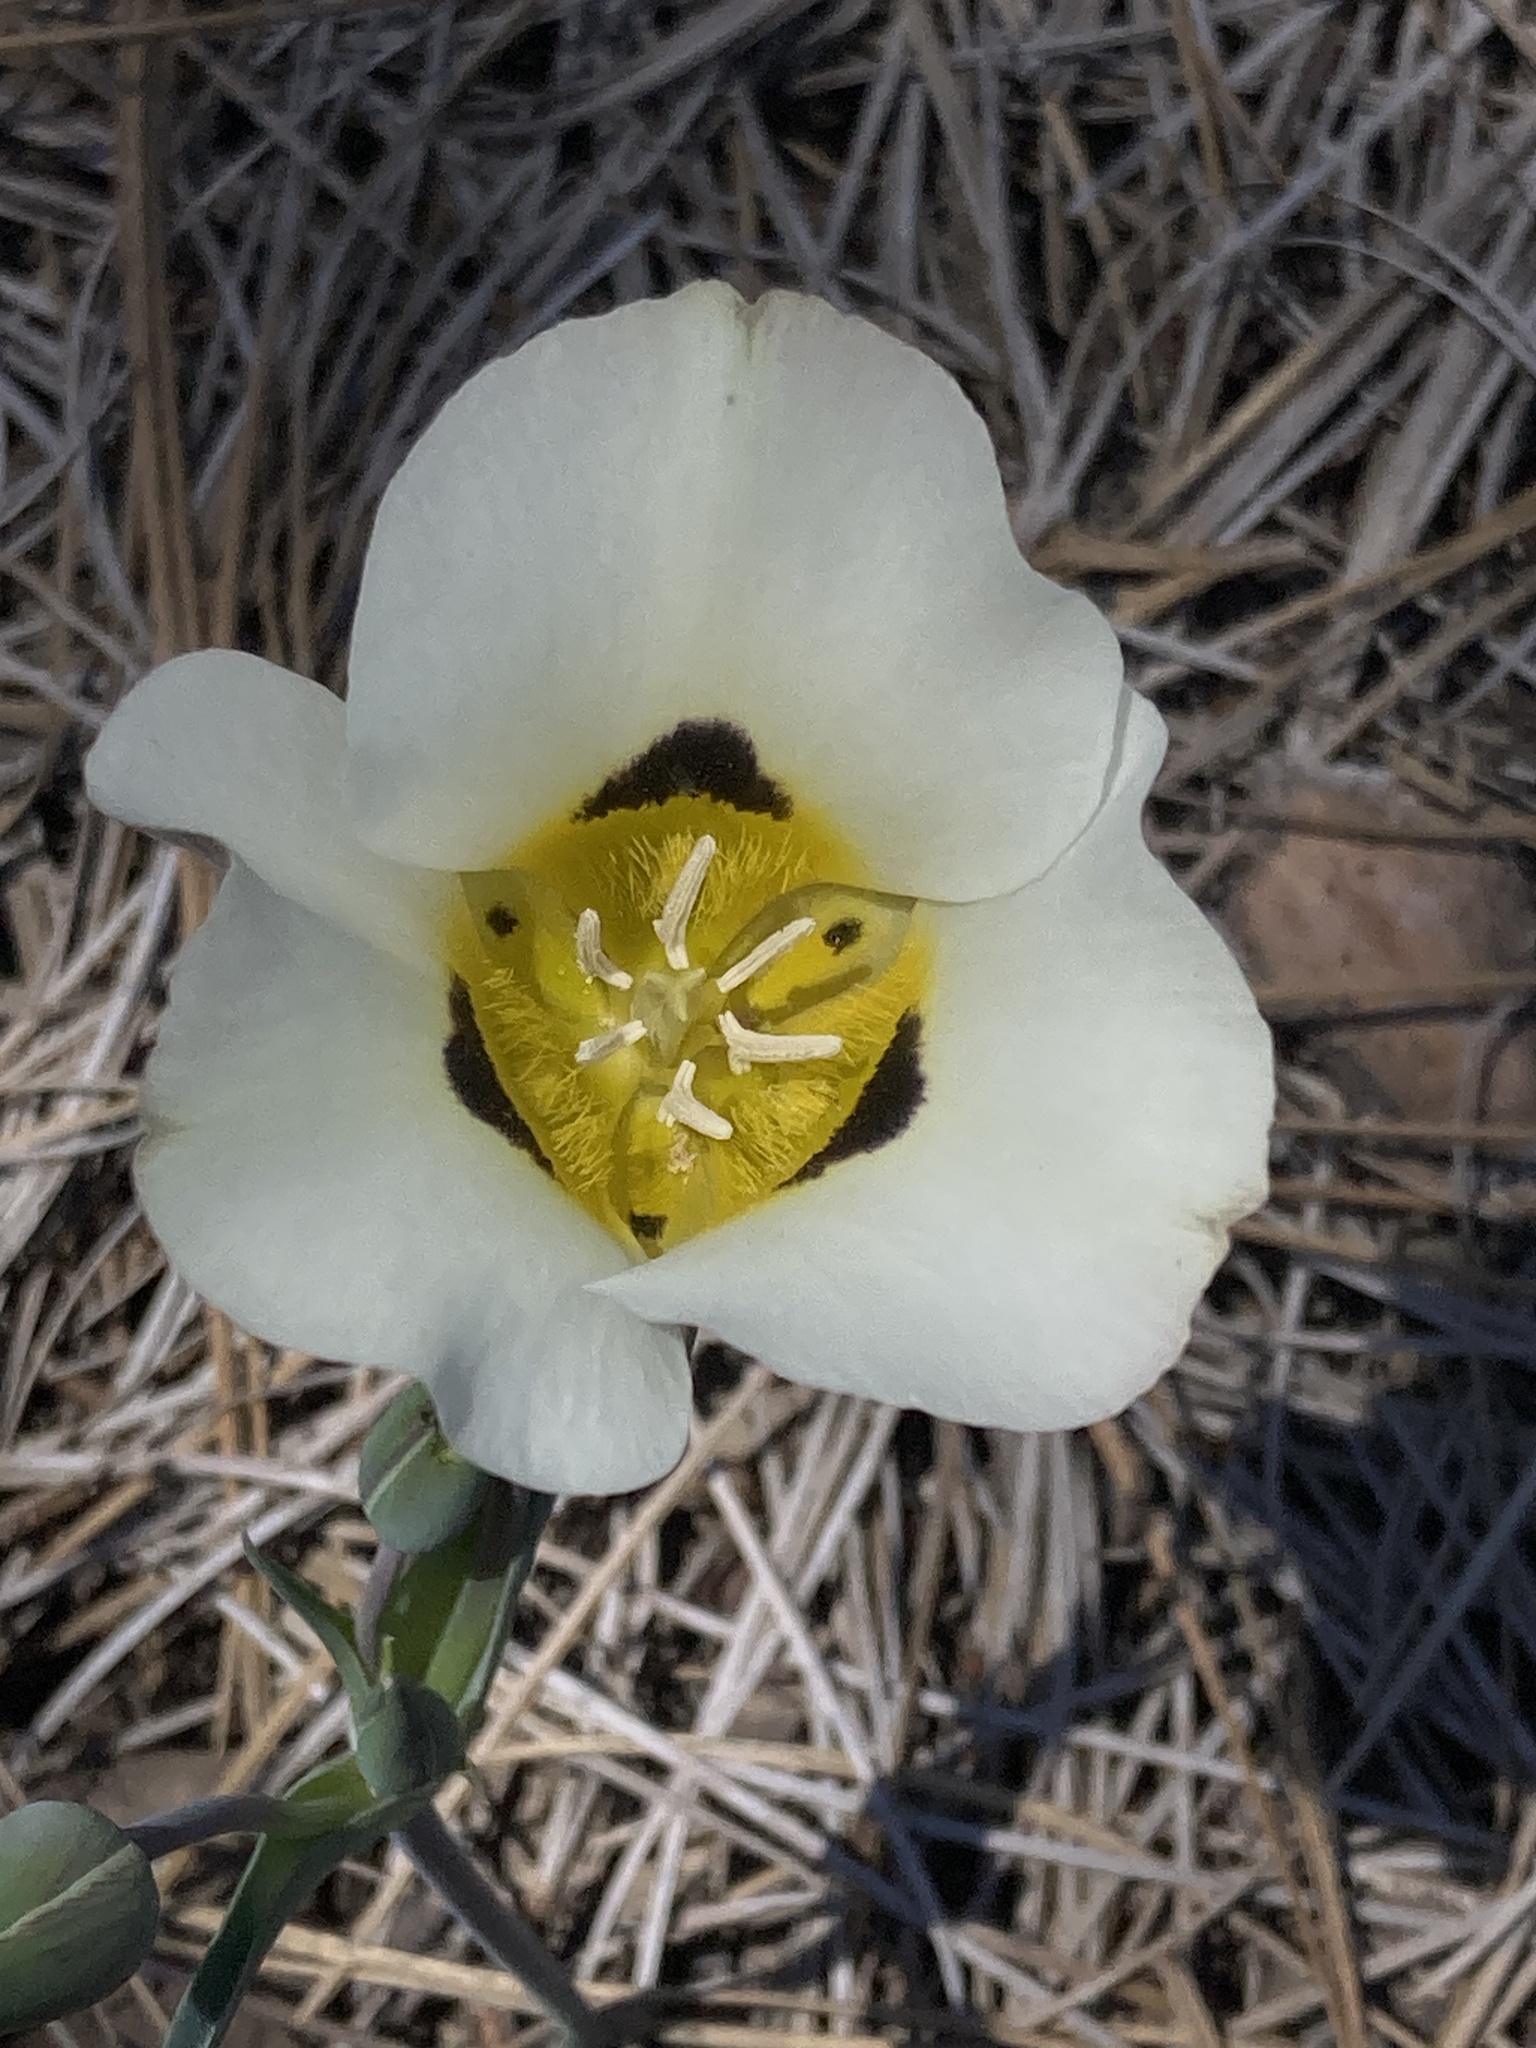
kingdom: Plantae
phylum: Tracheophyta
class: Liliopsida
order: Liliales
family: Liliaceae
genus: Calochortus
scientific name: Calochortus leichtlinii
